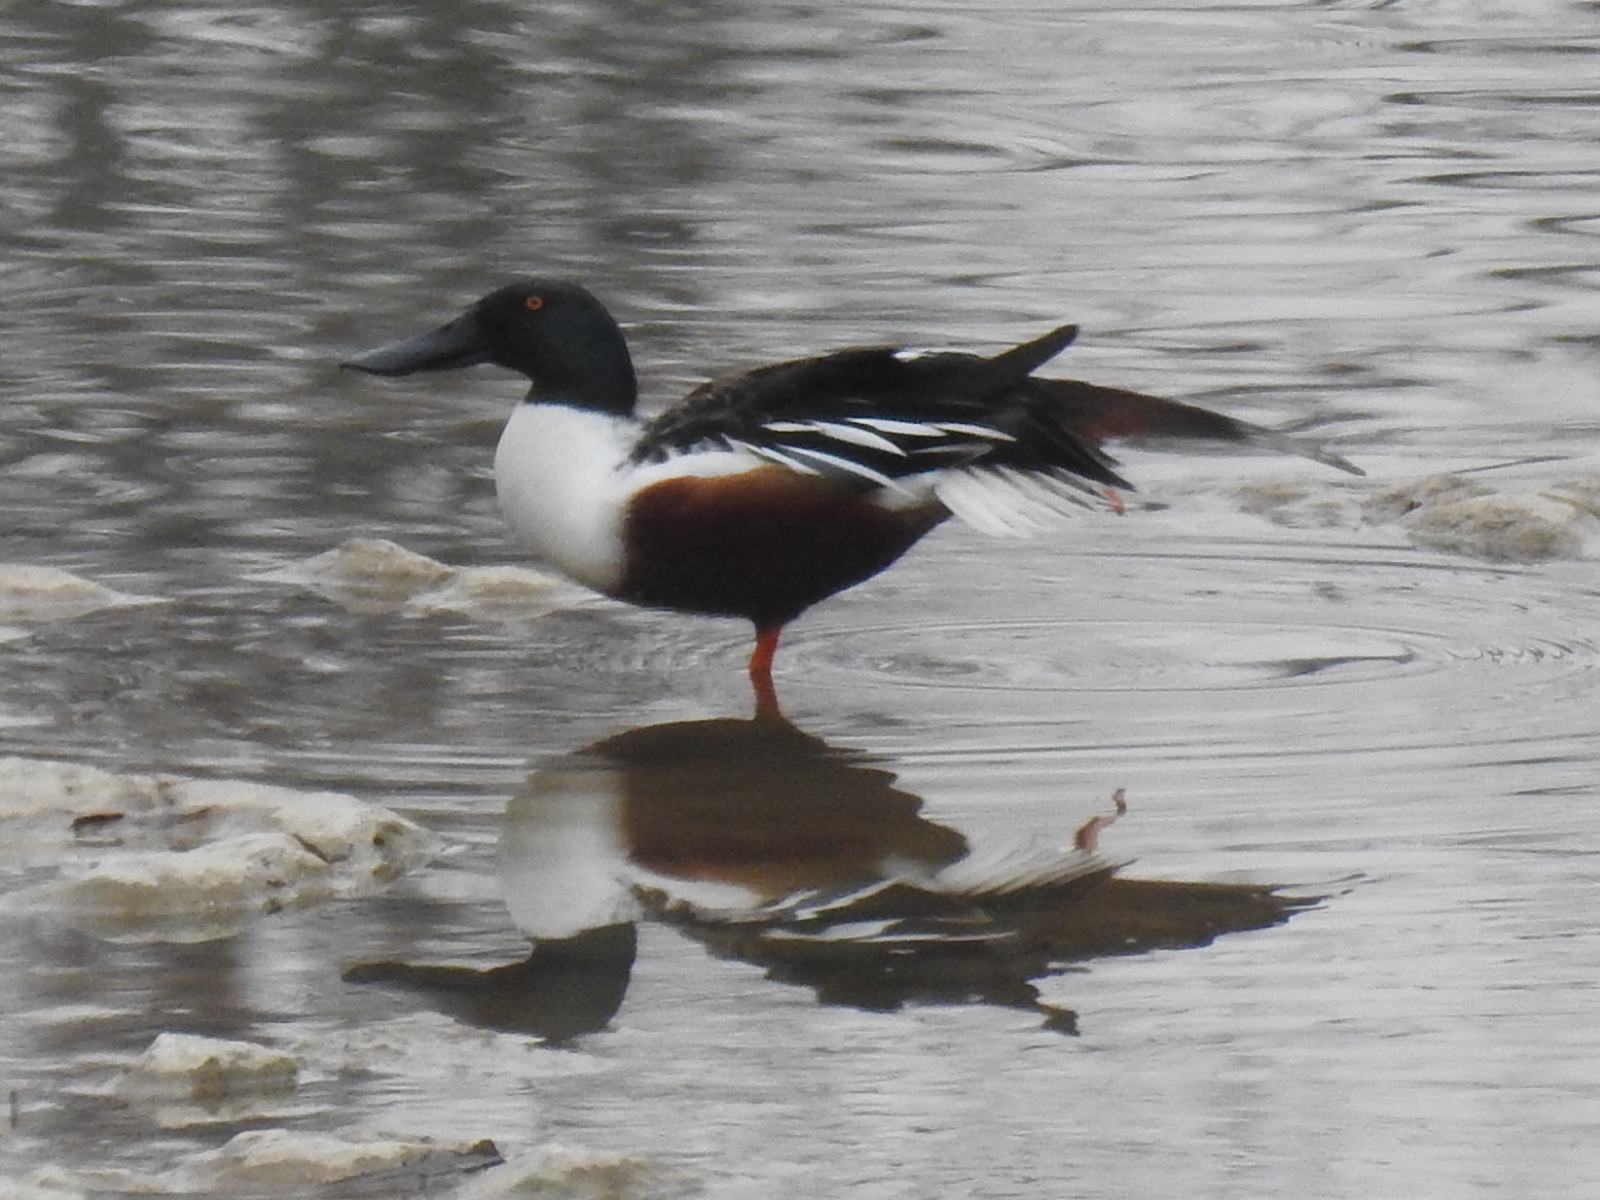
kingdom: Animalia
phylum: Chordata
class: Aves
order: Anseriformes
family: Anatidae
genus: Spatula
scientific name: Spatula clypeata
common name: Northern shoveler
